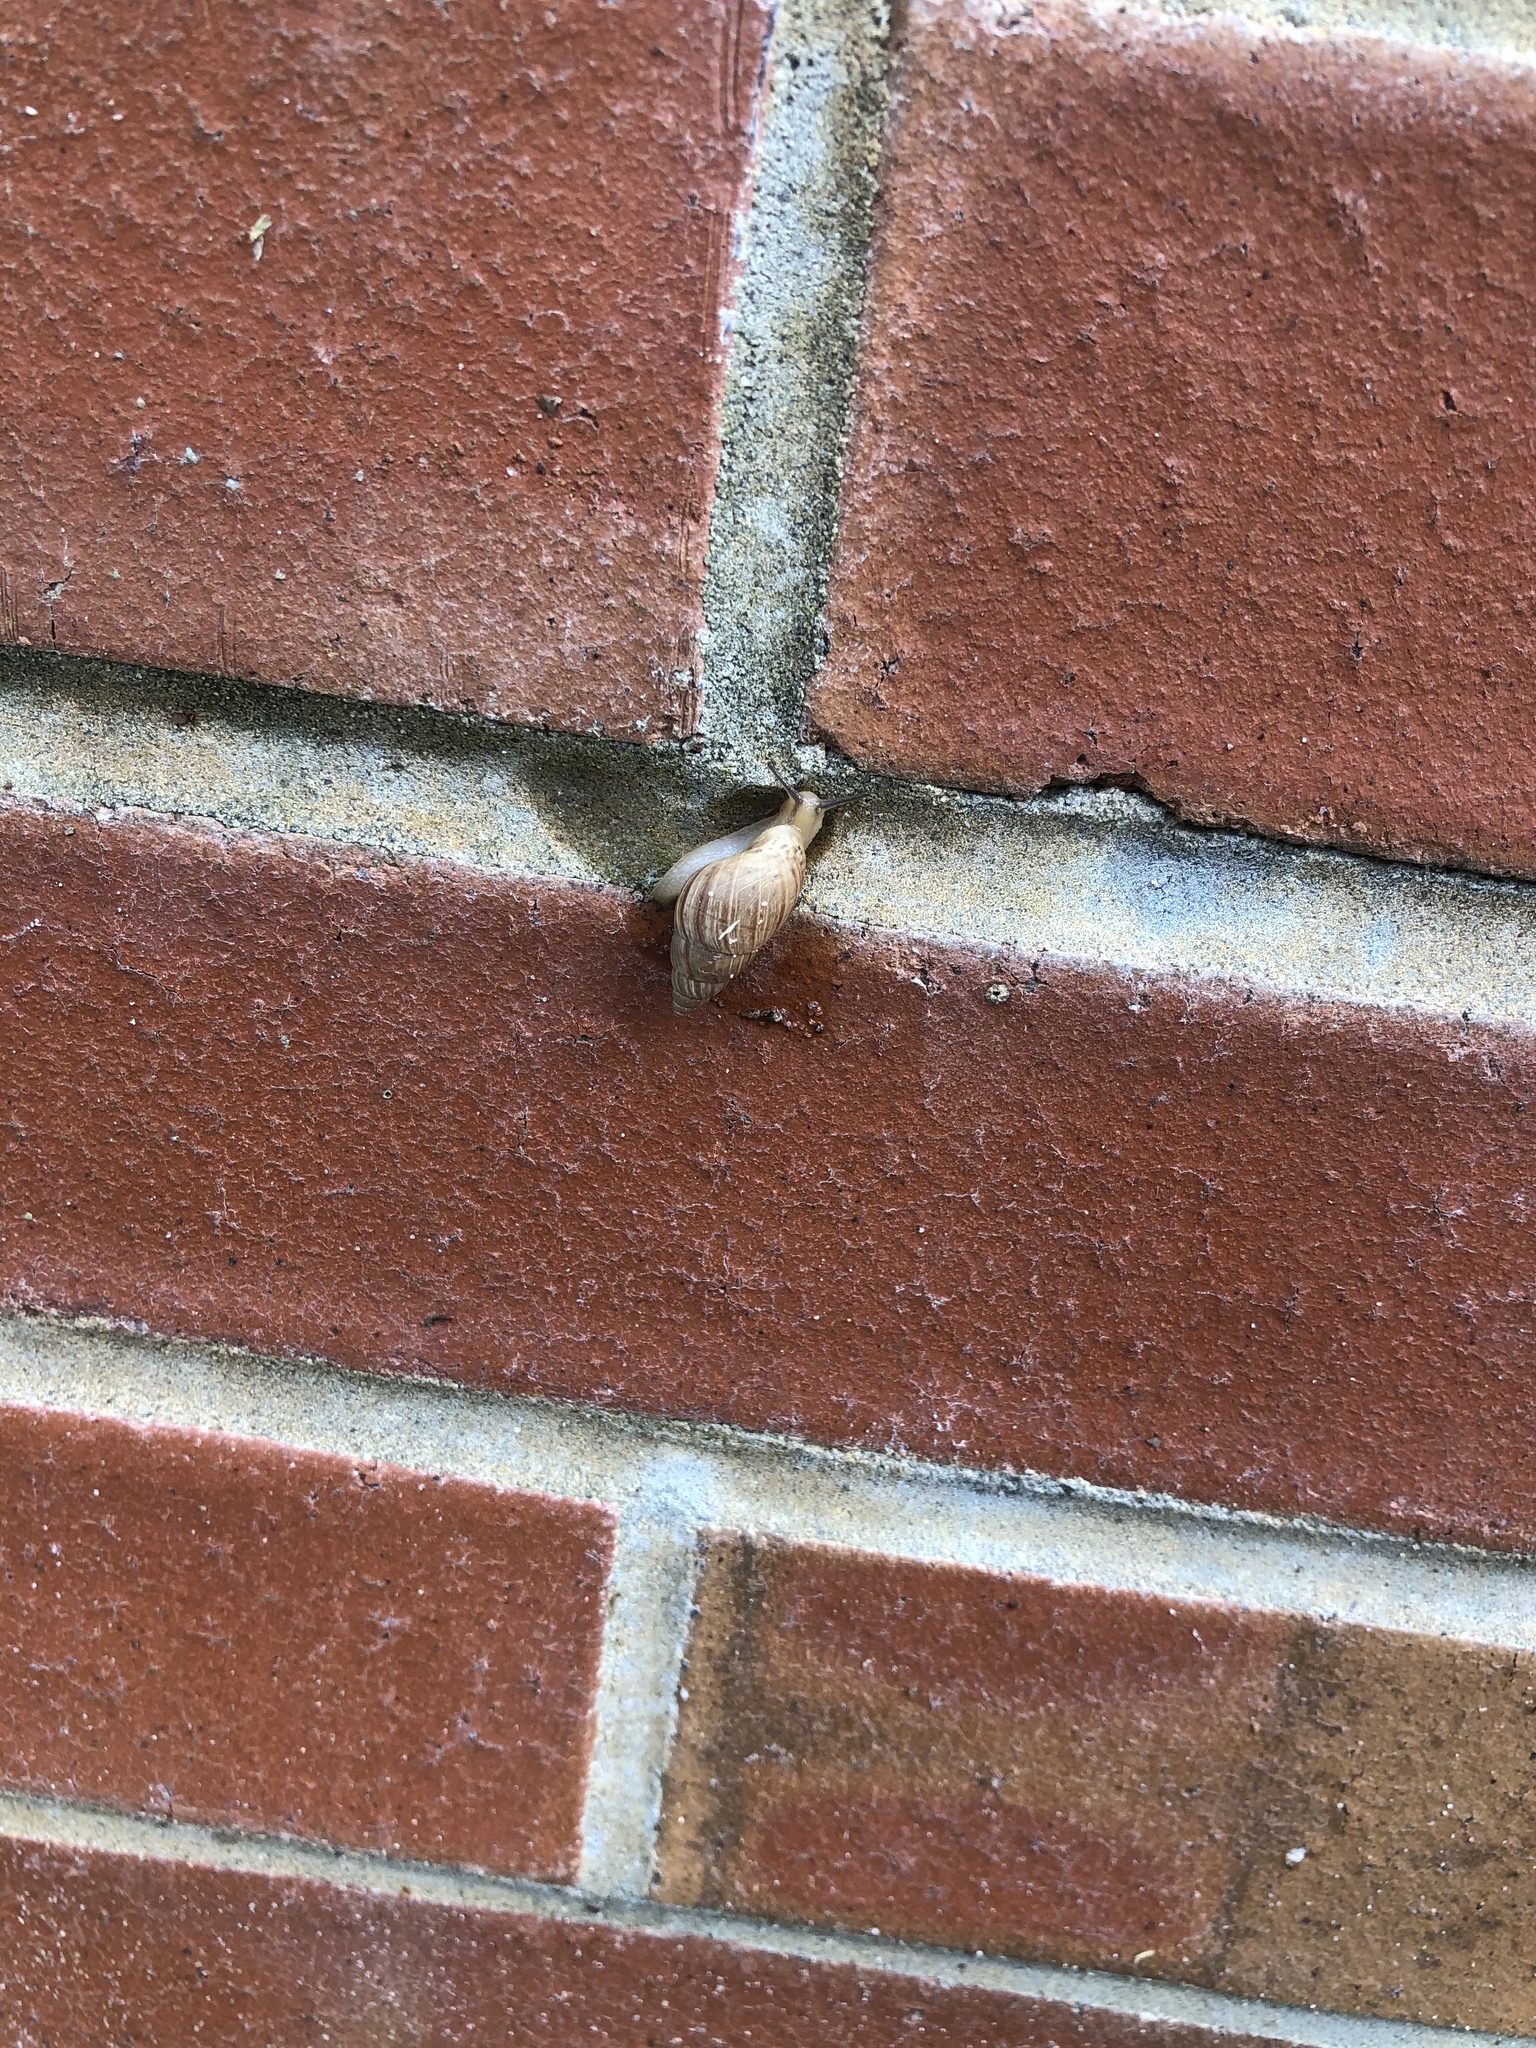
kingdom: Animalia
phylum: Mollusca
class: Gastropoda
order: Stylommatophora
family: Bulimulidae
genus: Bulimulus
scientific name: Bulimulus bonariensis
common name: Snail
